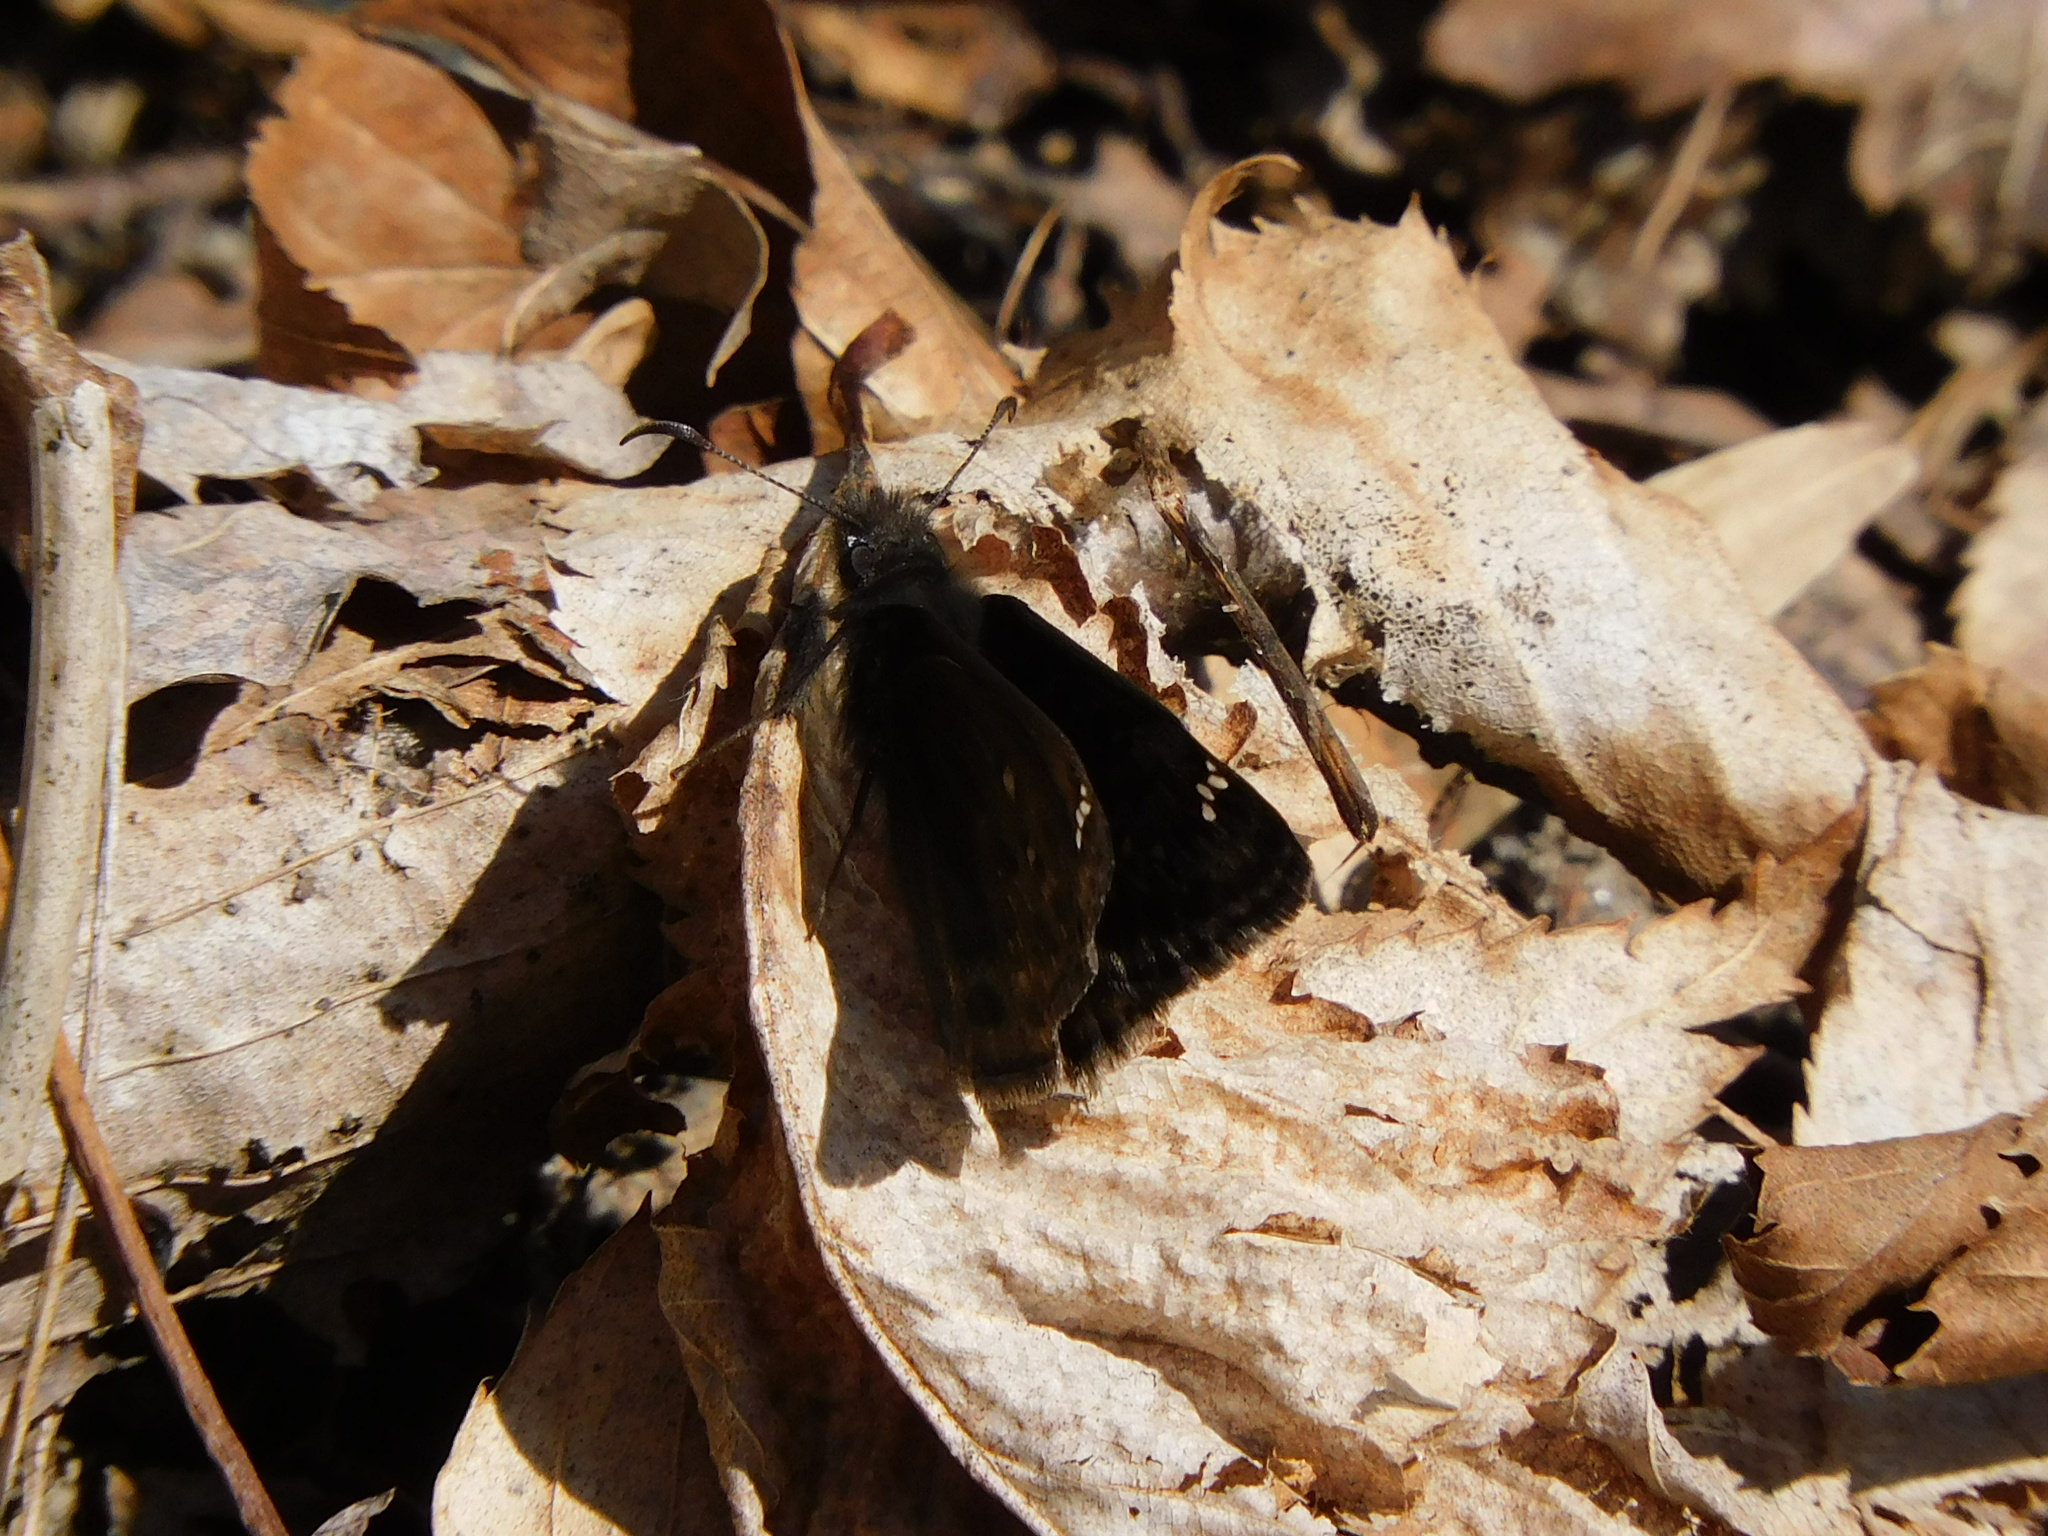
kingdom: Animalia
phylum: Arthropoda
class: Insecta
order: Lepidoptera
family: Hesperiidae
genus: Erynnis
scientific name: Erynnis juvenalis
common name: Juvenal's duskywing
